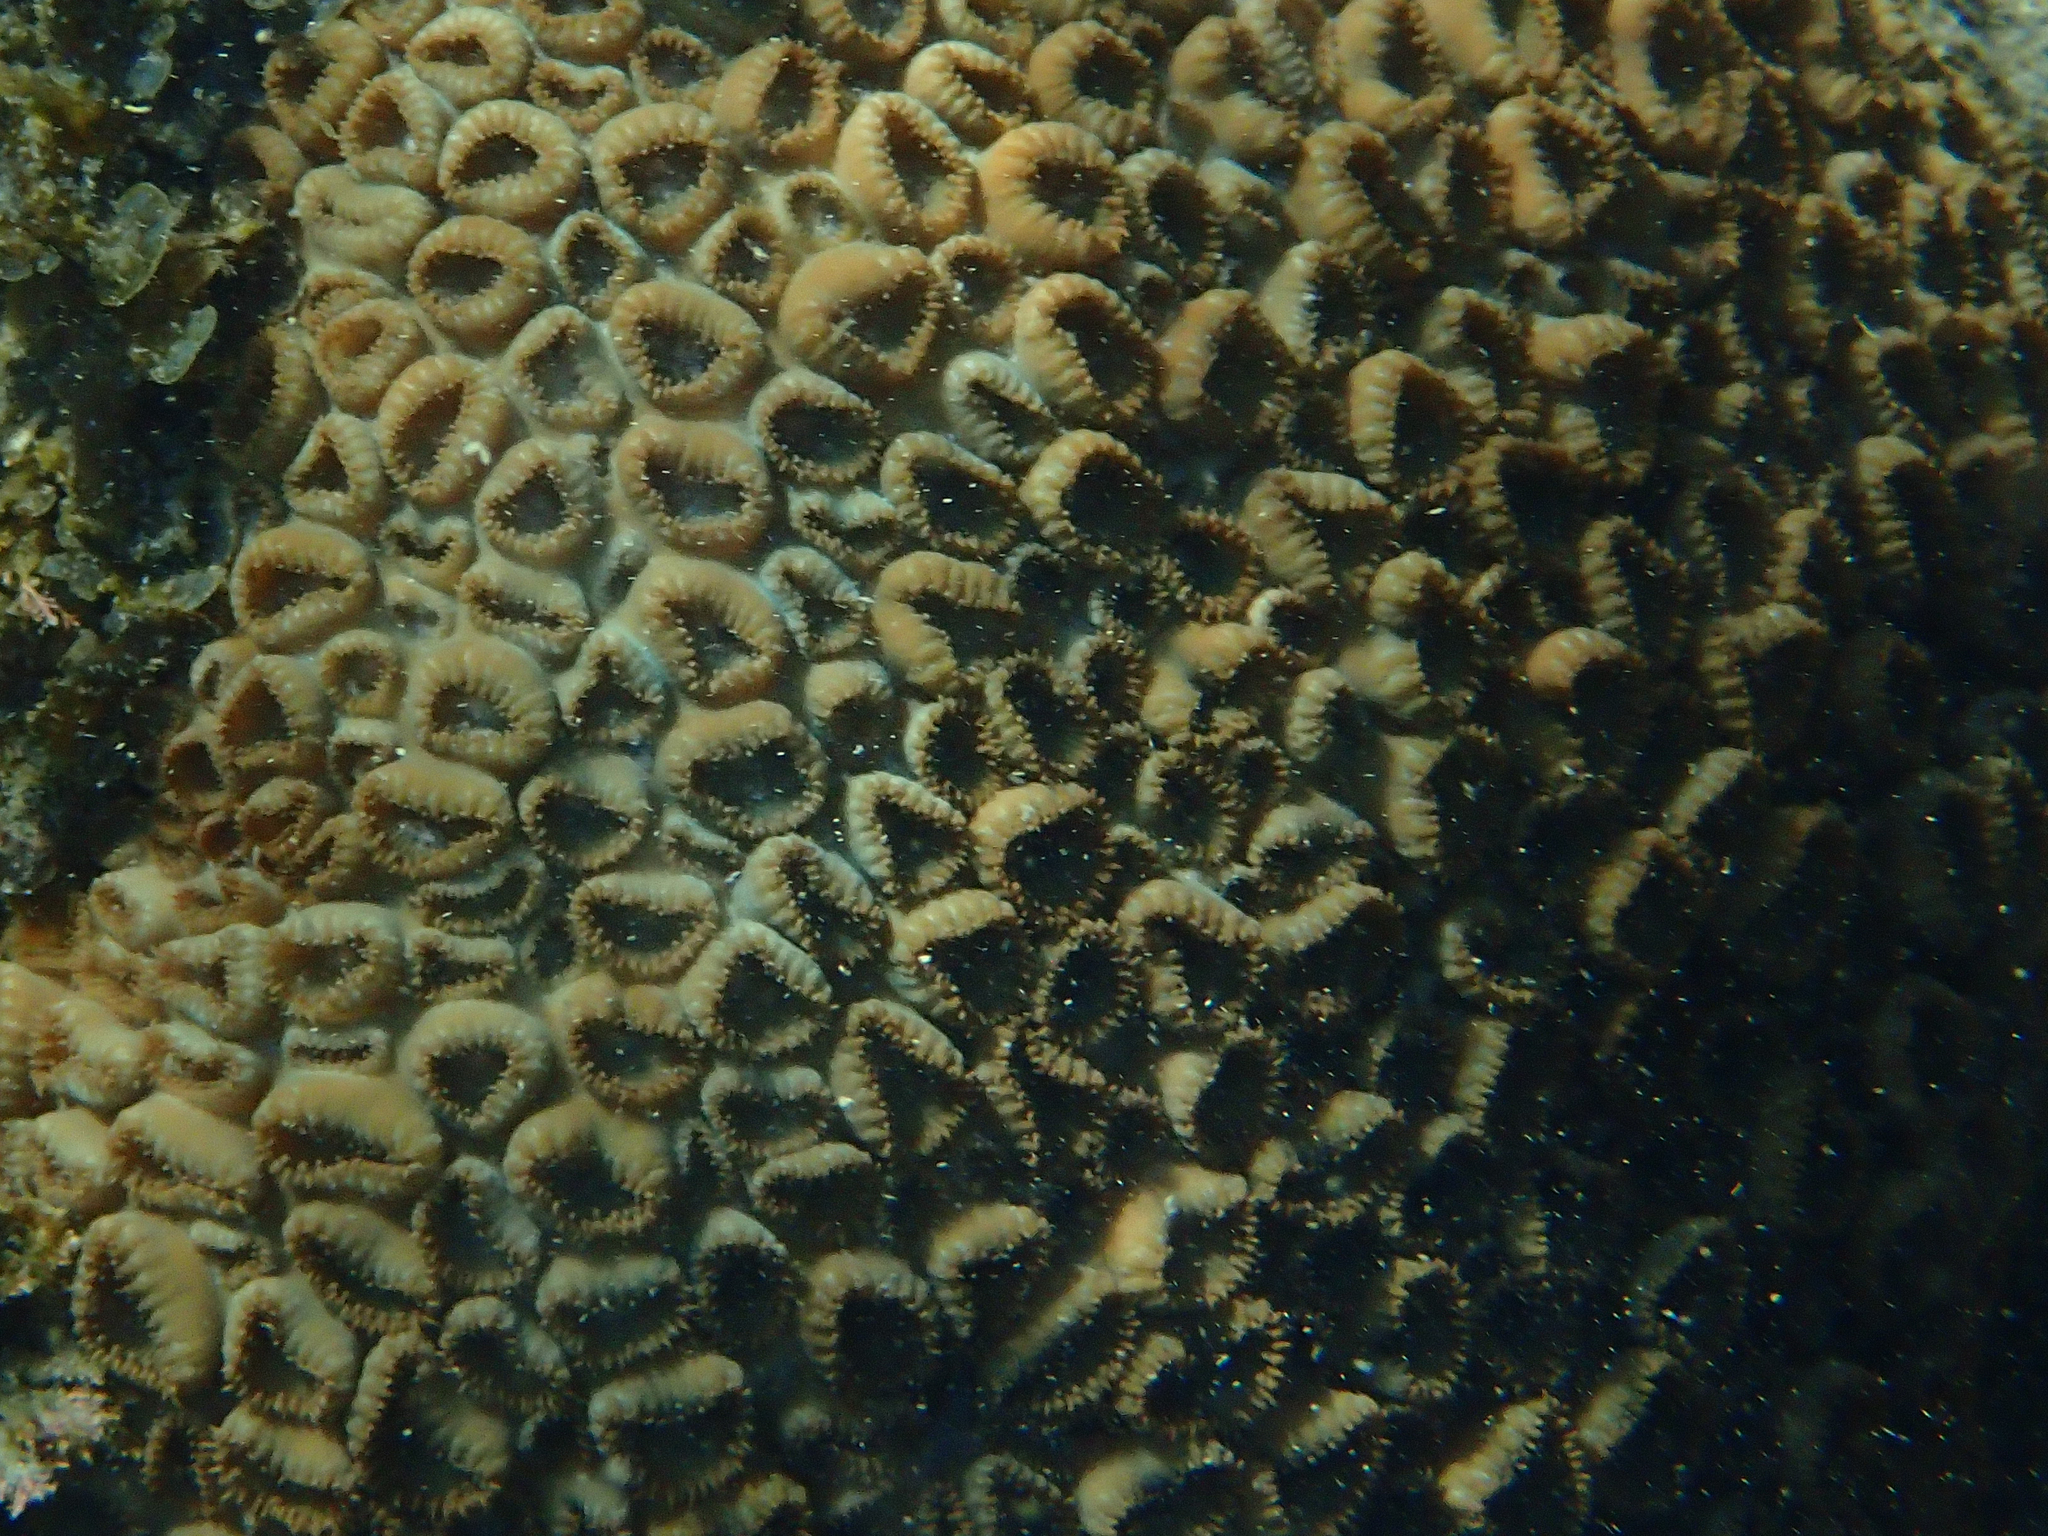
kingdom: Animalia
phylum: Cnidaria
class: Anthozoa
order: Zoantharia
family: Sphenopidae
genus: Palythoa
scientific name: Palythoa tuberculosa
